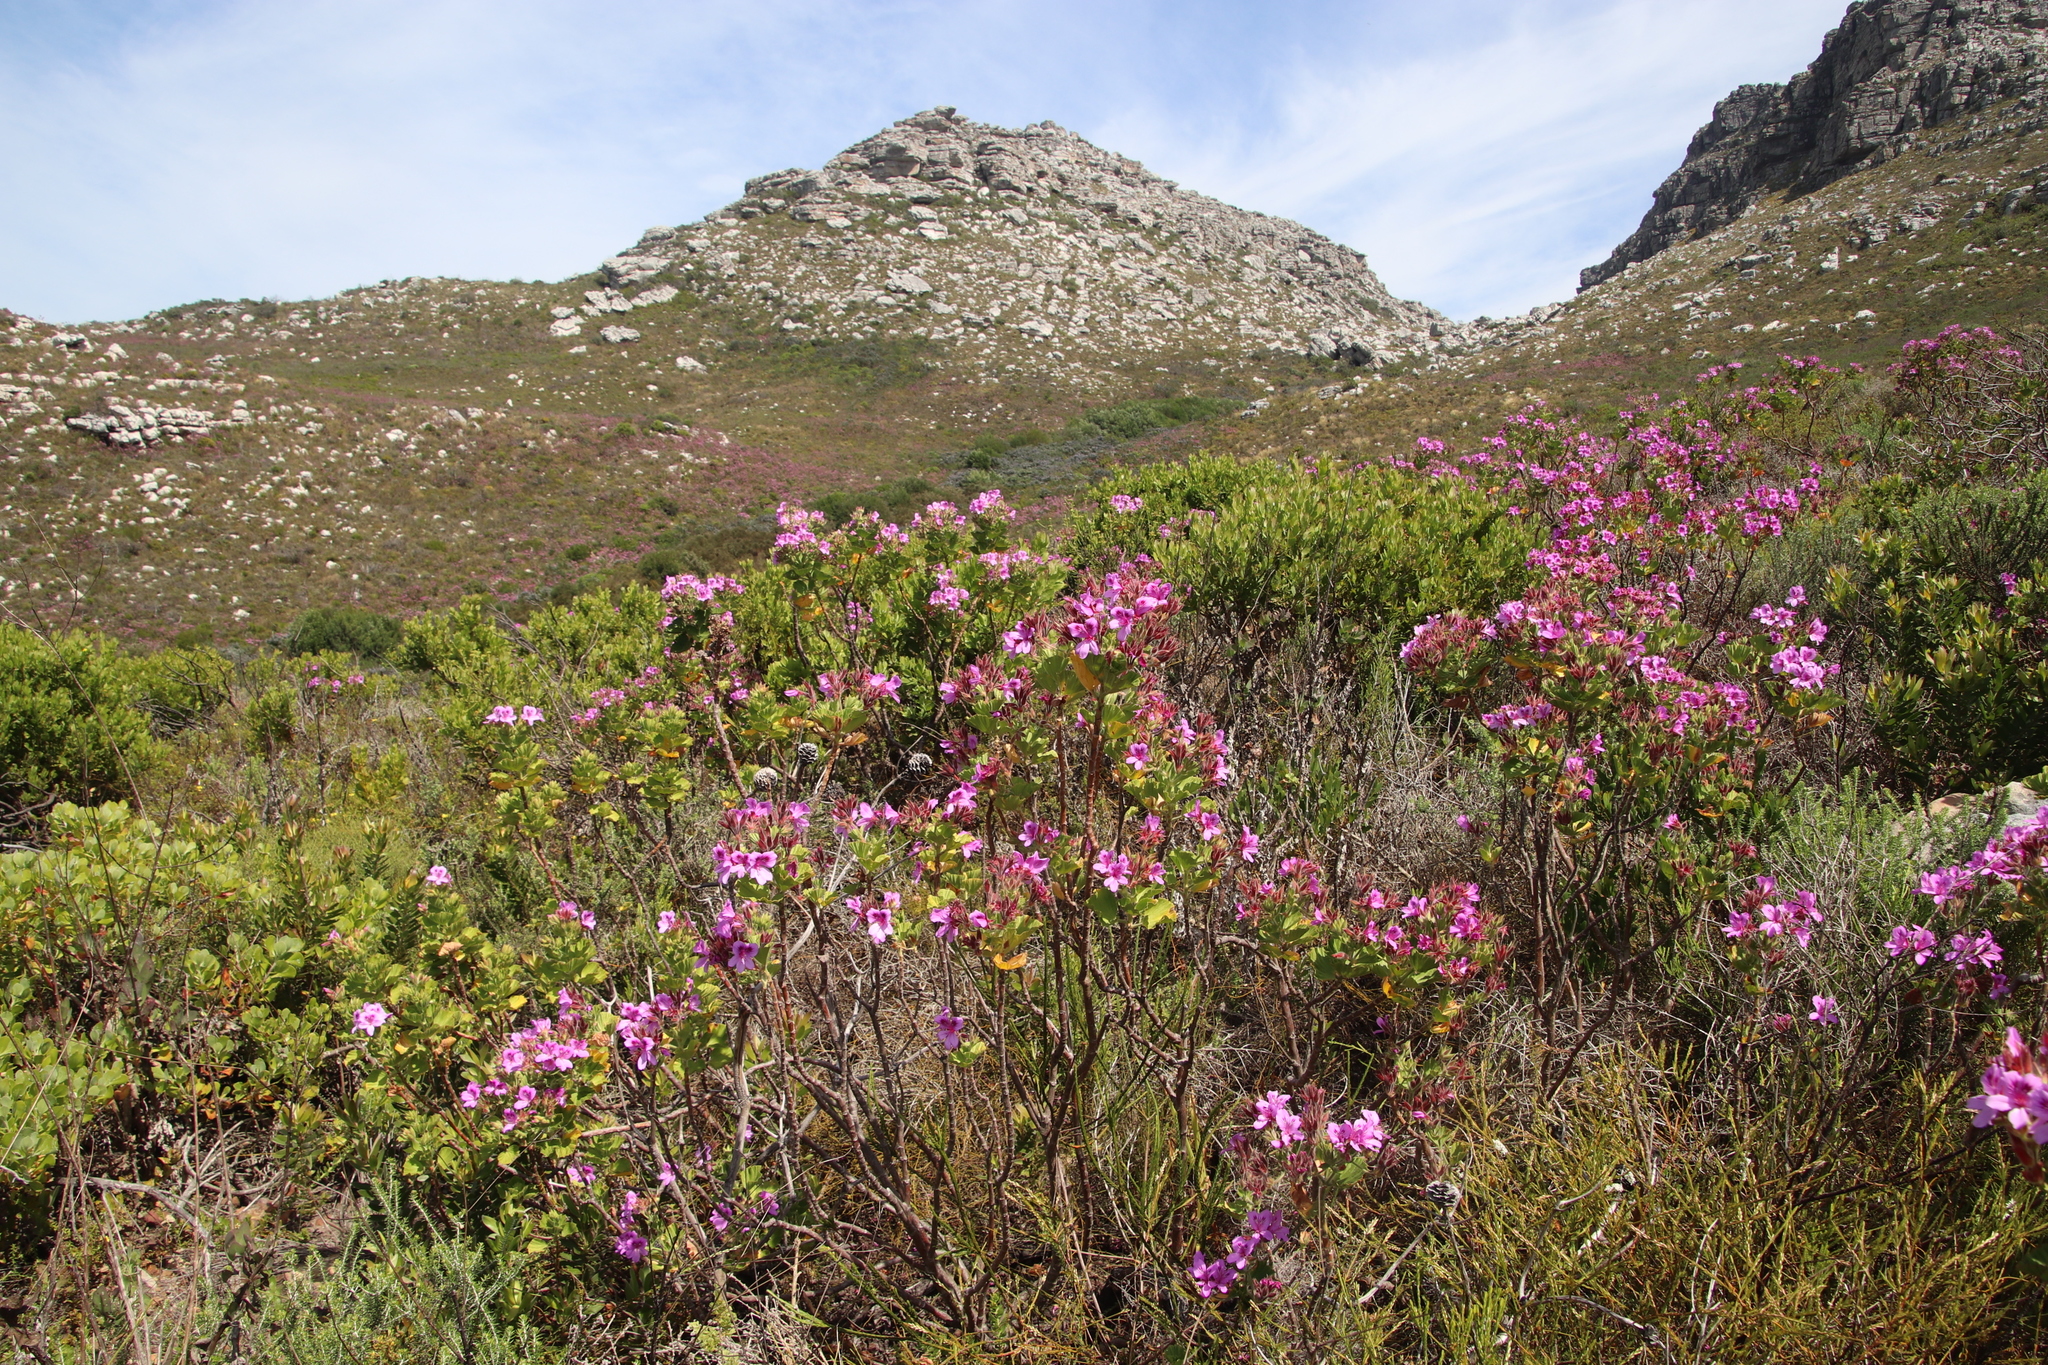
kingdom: Plantae
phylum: Tracheophyta
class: Magnoliopsida
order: Geraniales
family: Geraniaceae
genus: Pelargonium
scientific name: Pelargonium cucullatum
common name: Tree pelargonium
